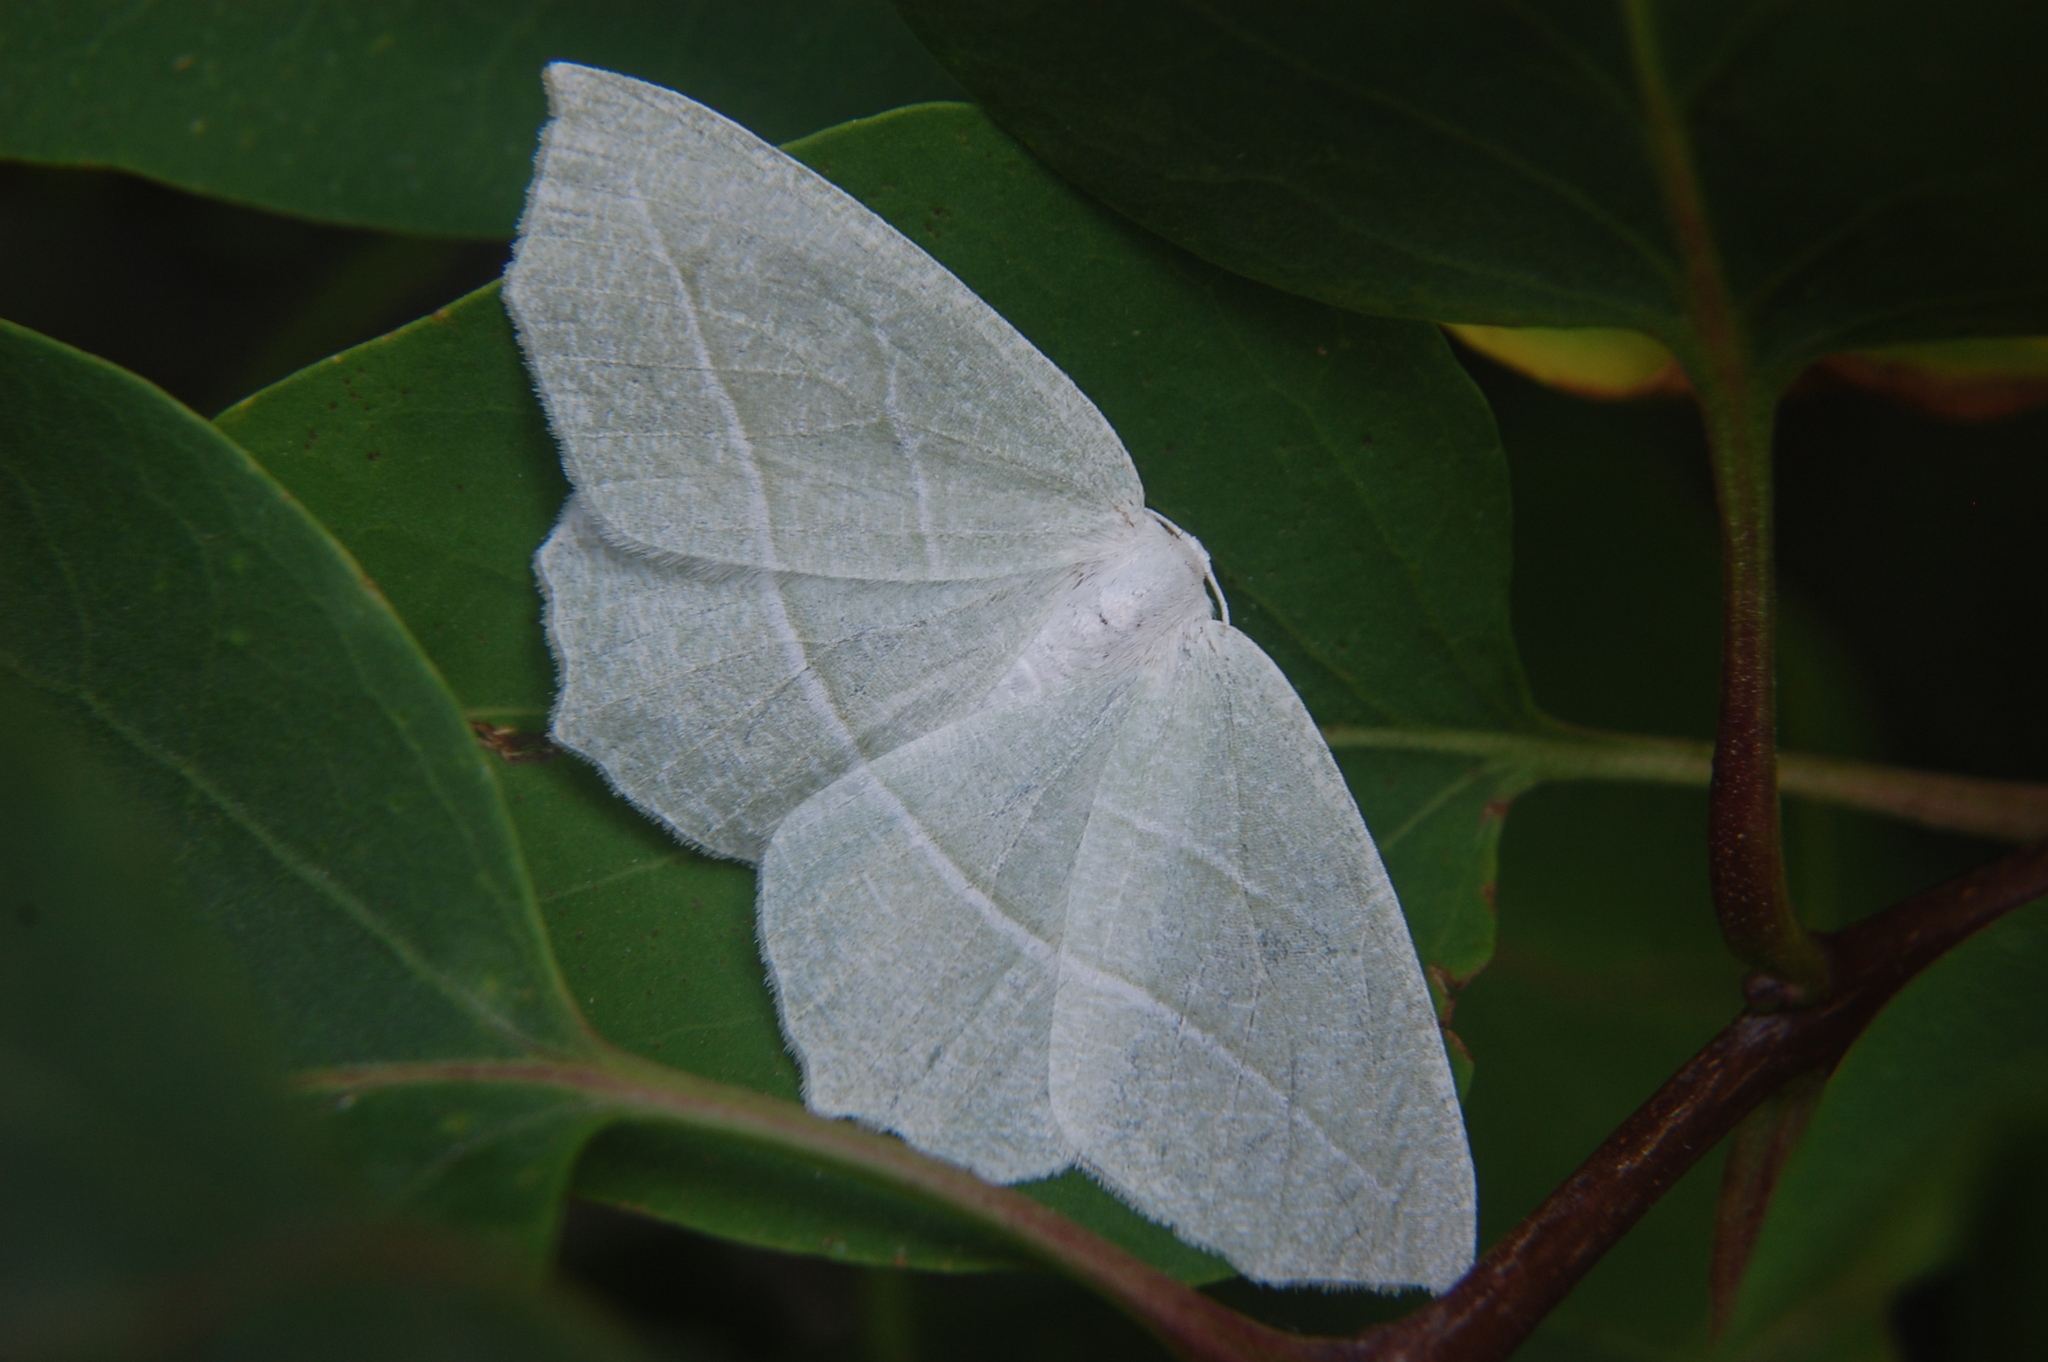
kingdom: Animalia
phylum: Arthropoda
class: Insecta
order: Lepidoptera
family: Geometridae
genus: Campaea
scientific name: Campaea perlata
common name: Fringed looper
